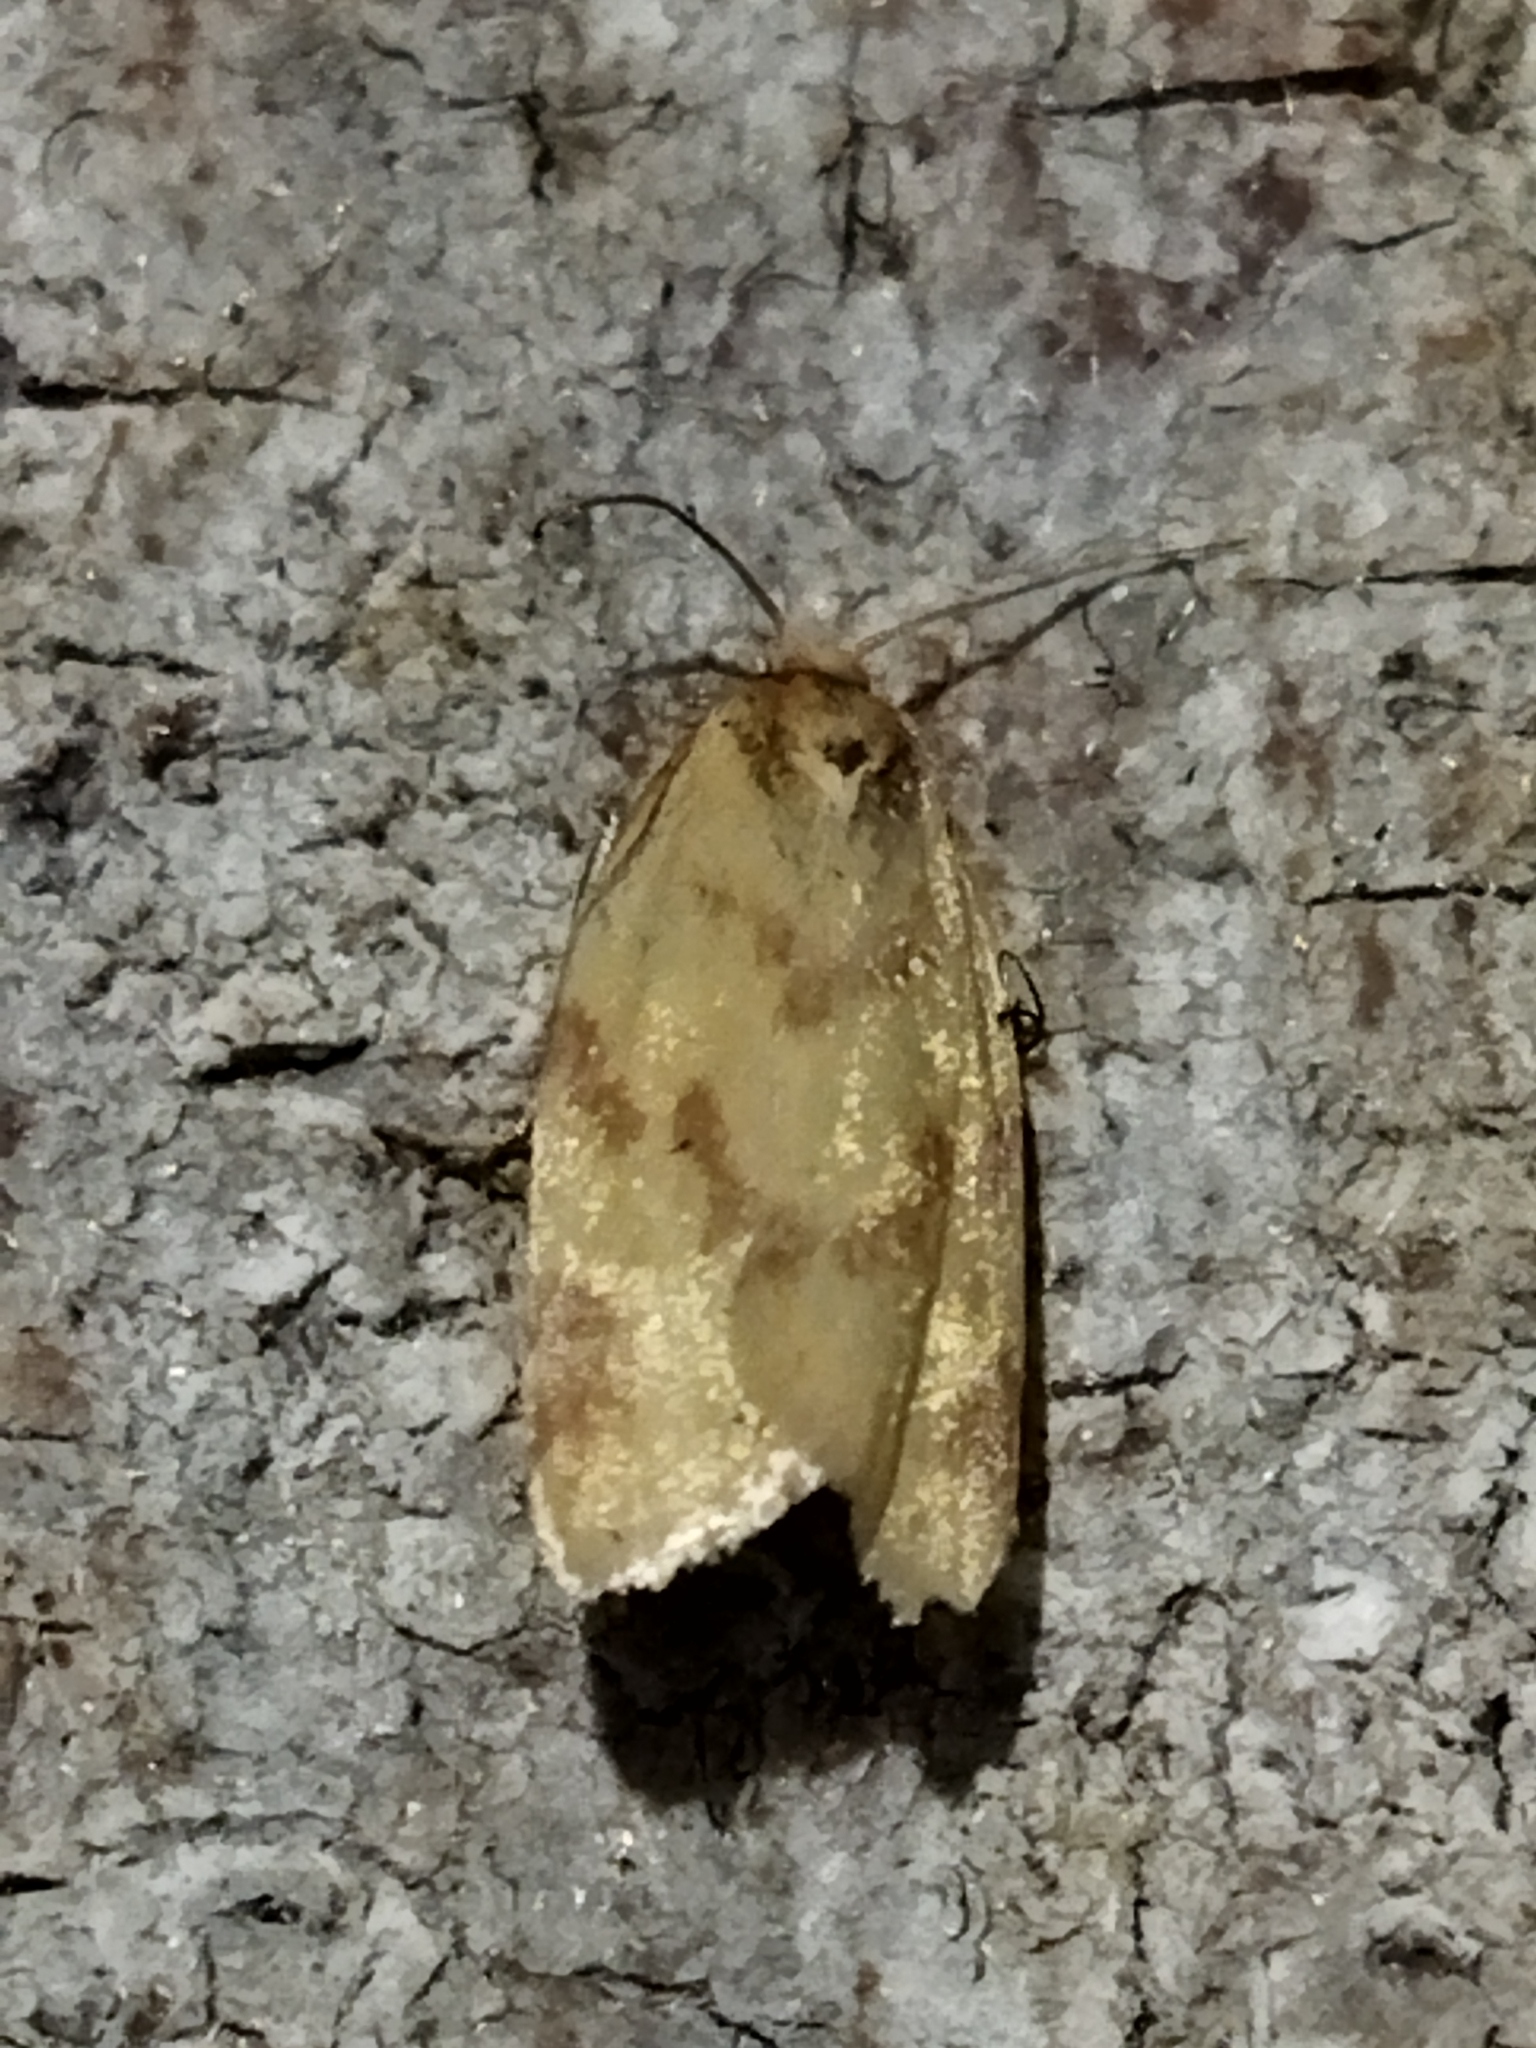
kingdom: Animalia
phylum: Arthropoda
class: Insecta
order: Lepidoptera
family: Tortricidae
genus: Clepsis
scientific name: Clepsis pallidana
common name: Sheep's-bit conch
